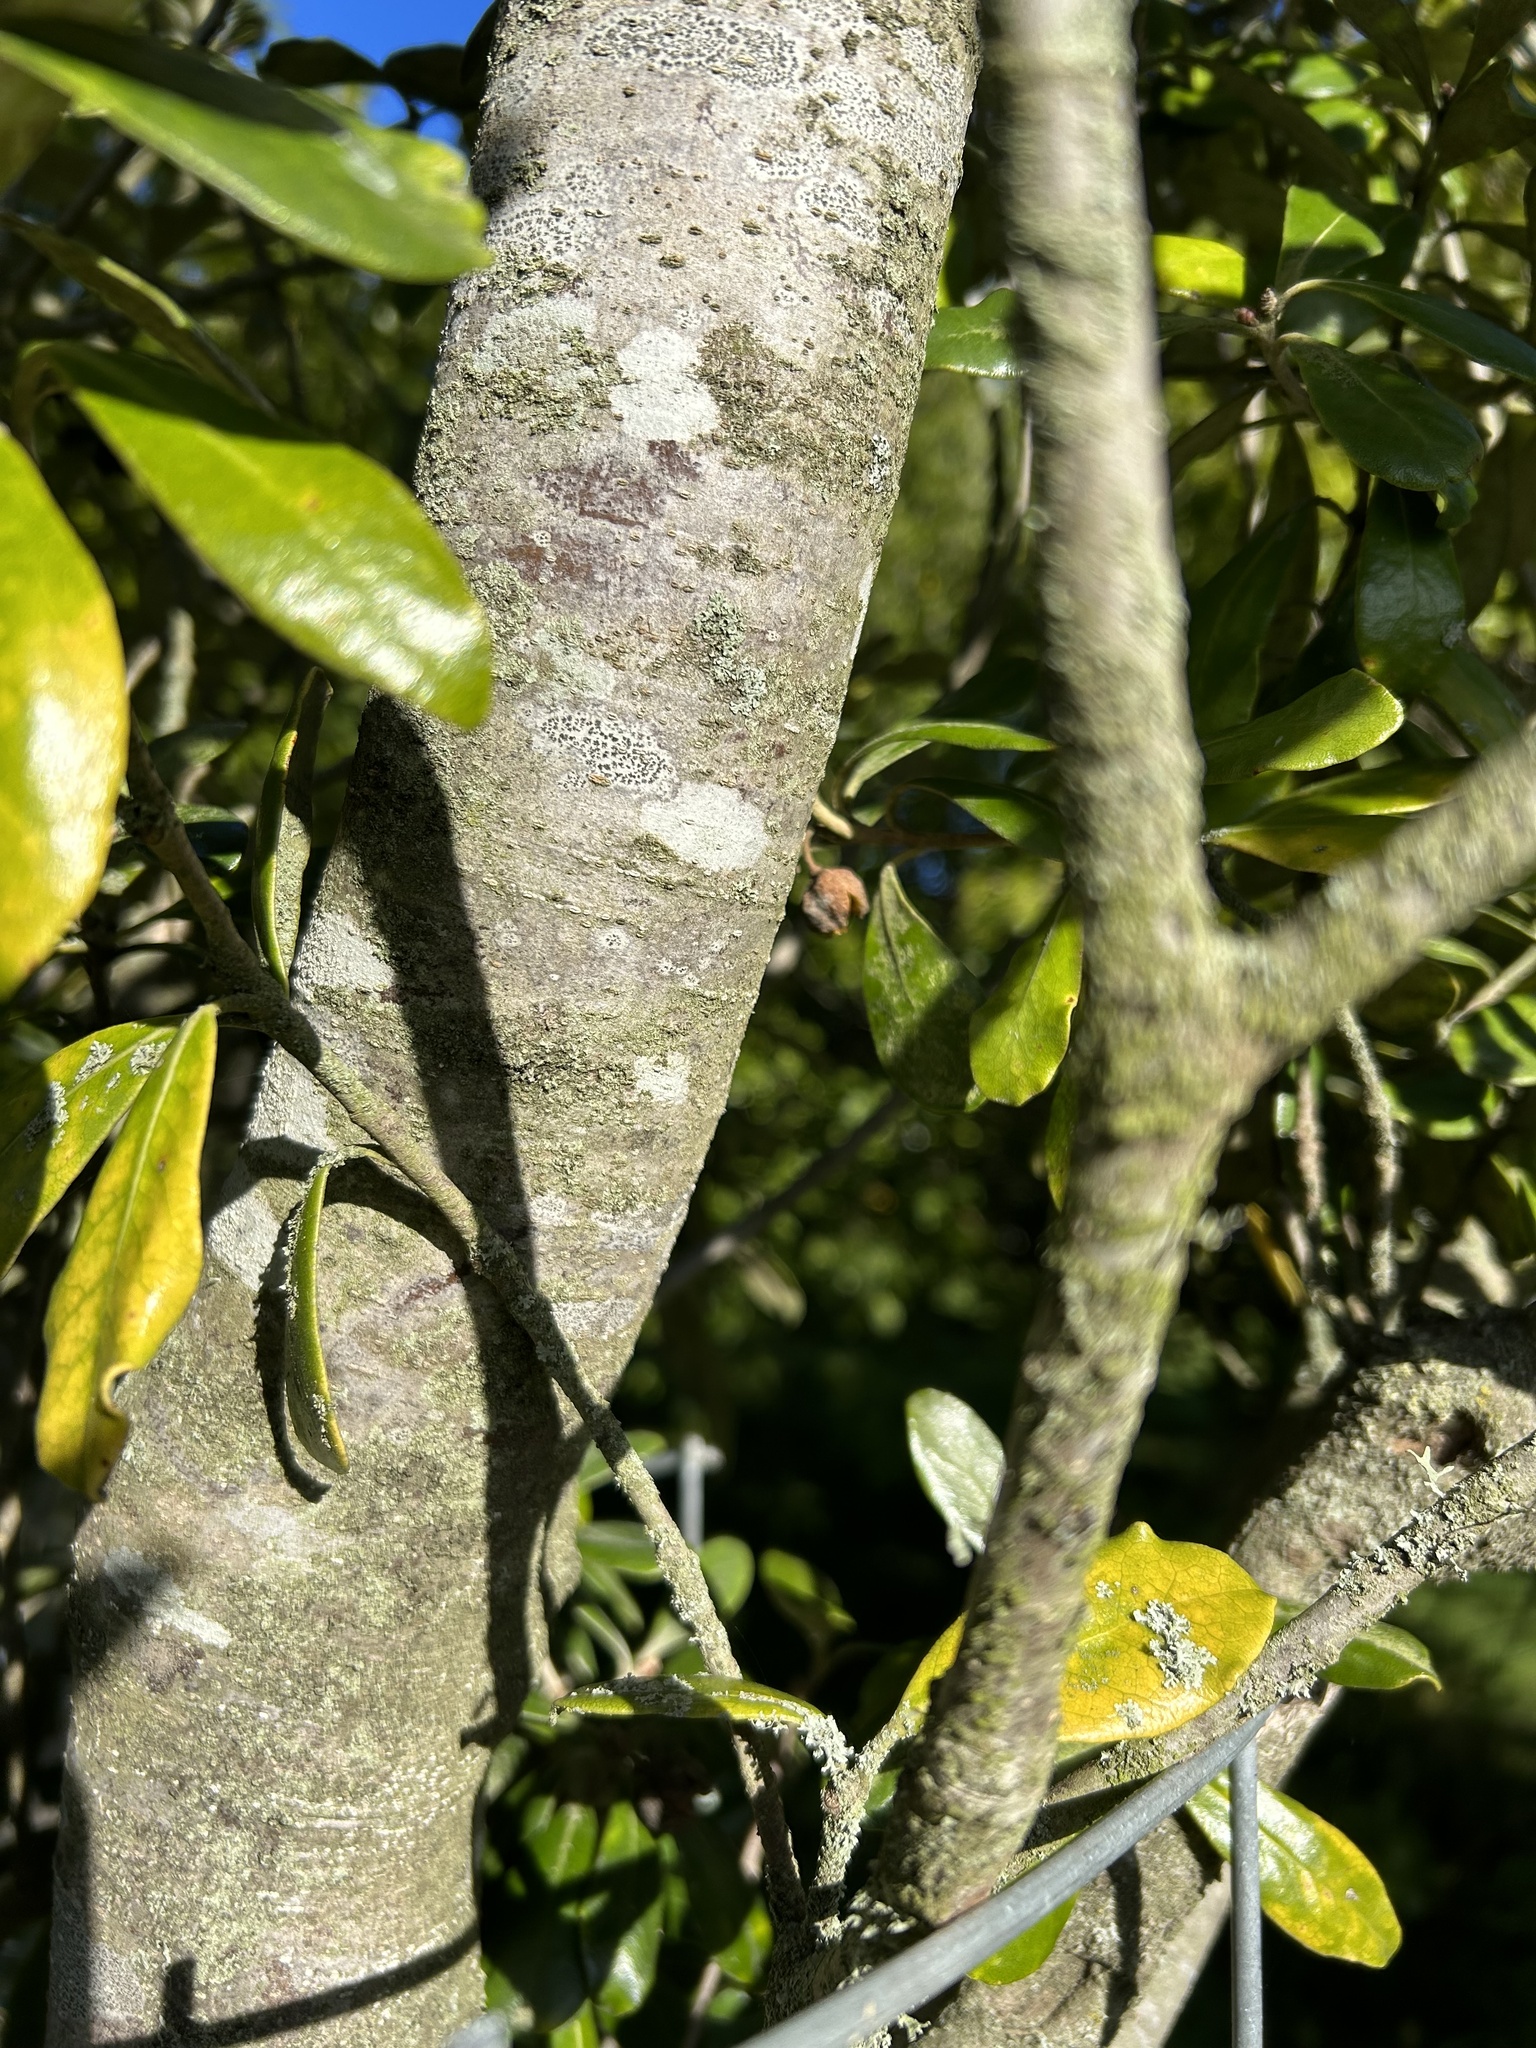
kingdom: Plantae
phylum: Tracheophyta
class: Magnoliopsida
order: Apiales
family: Pittosporaceae
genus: Pittosporum
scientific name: Pittosporum crassifolium
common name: Karo
